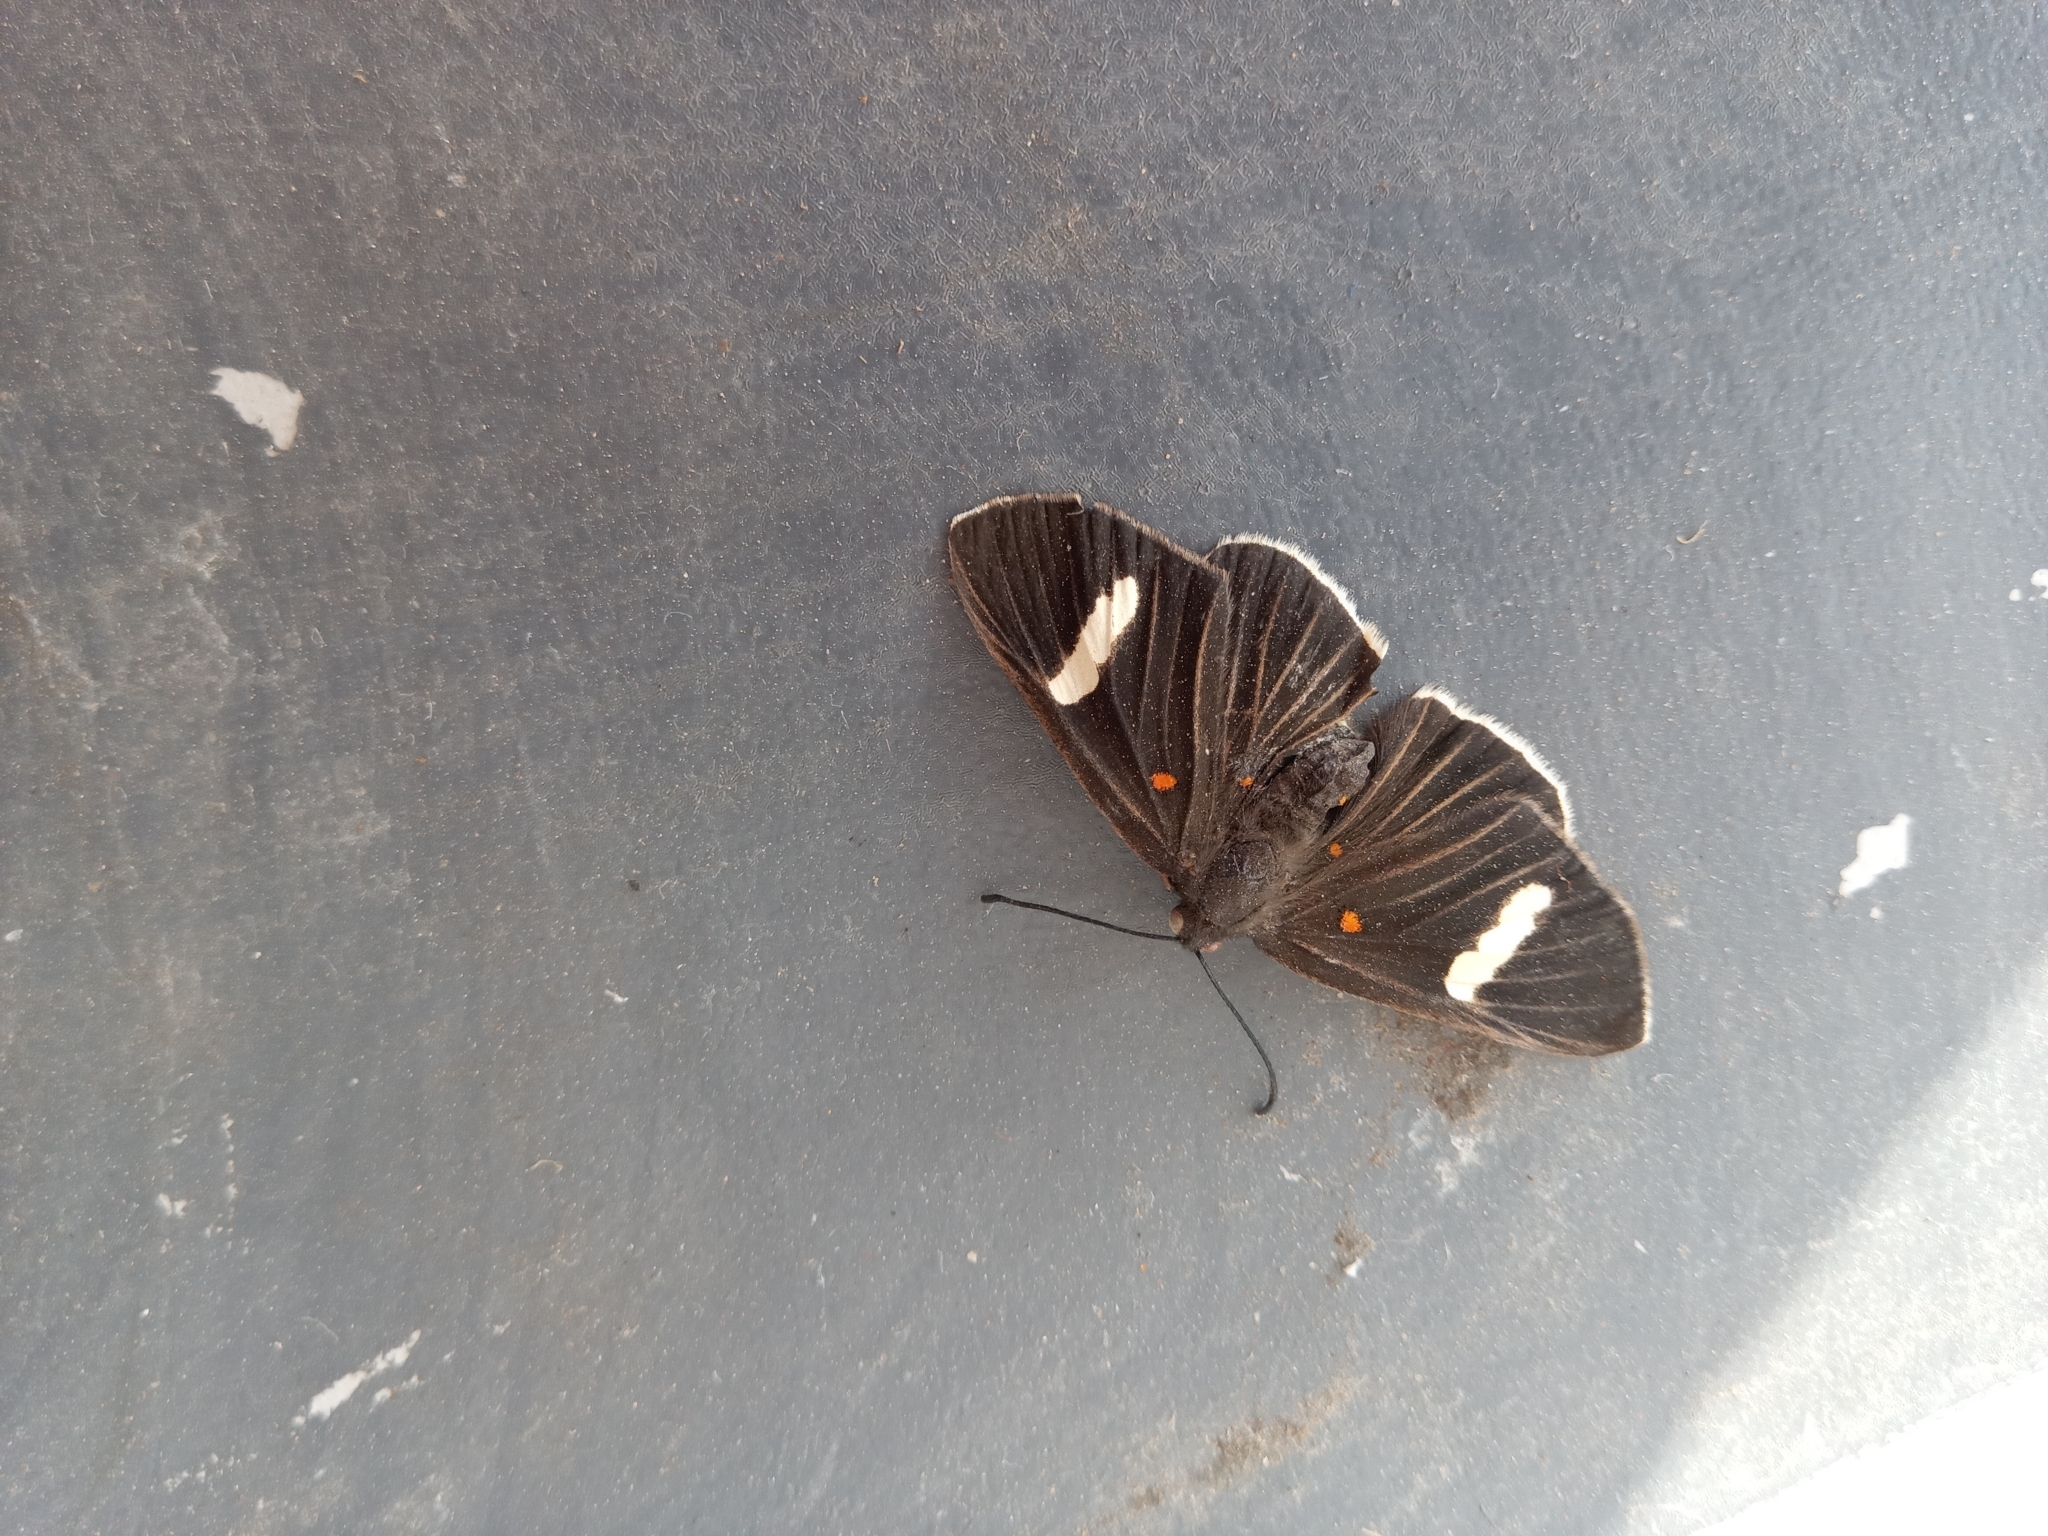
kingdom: Animalia
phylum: Arthropoda
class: Insecta
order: Lepidoptera
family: Lycaenidae
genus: Melanis
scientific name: Melanis
